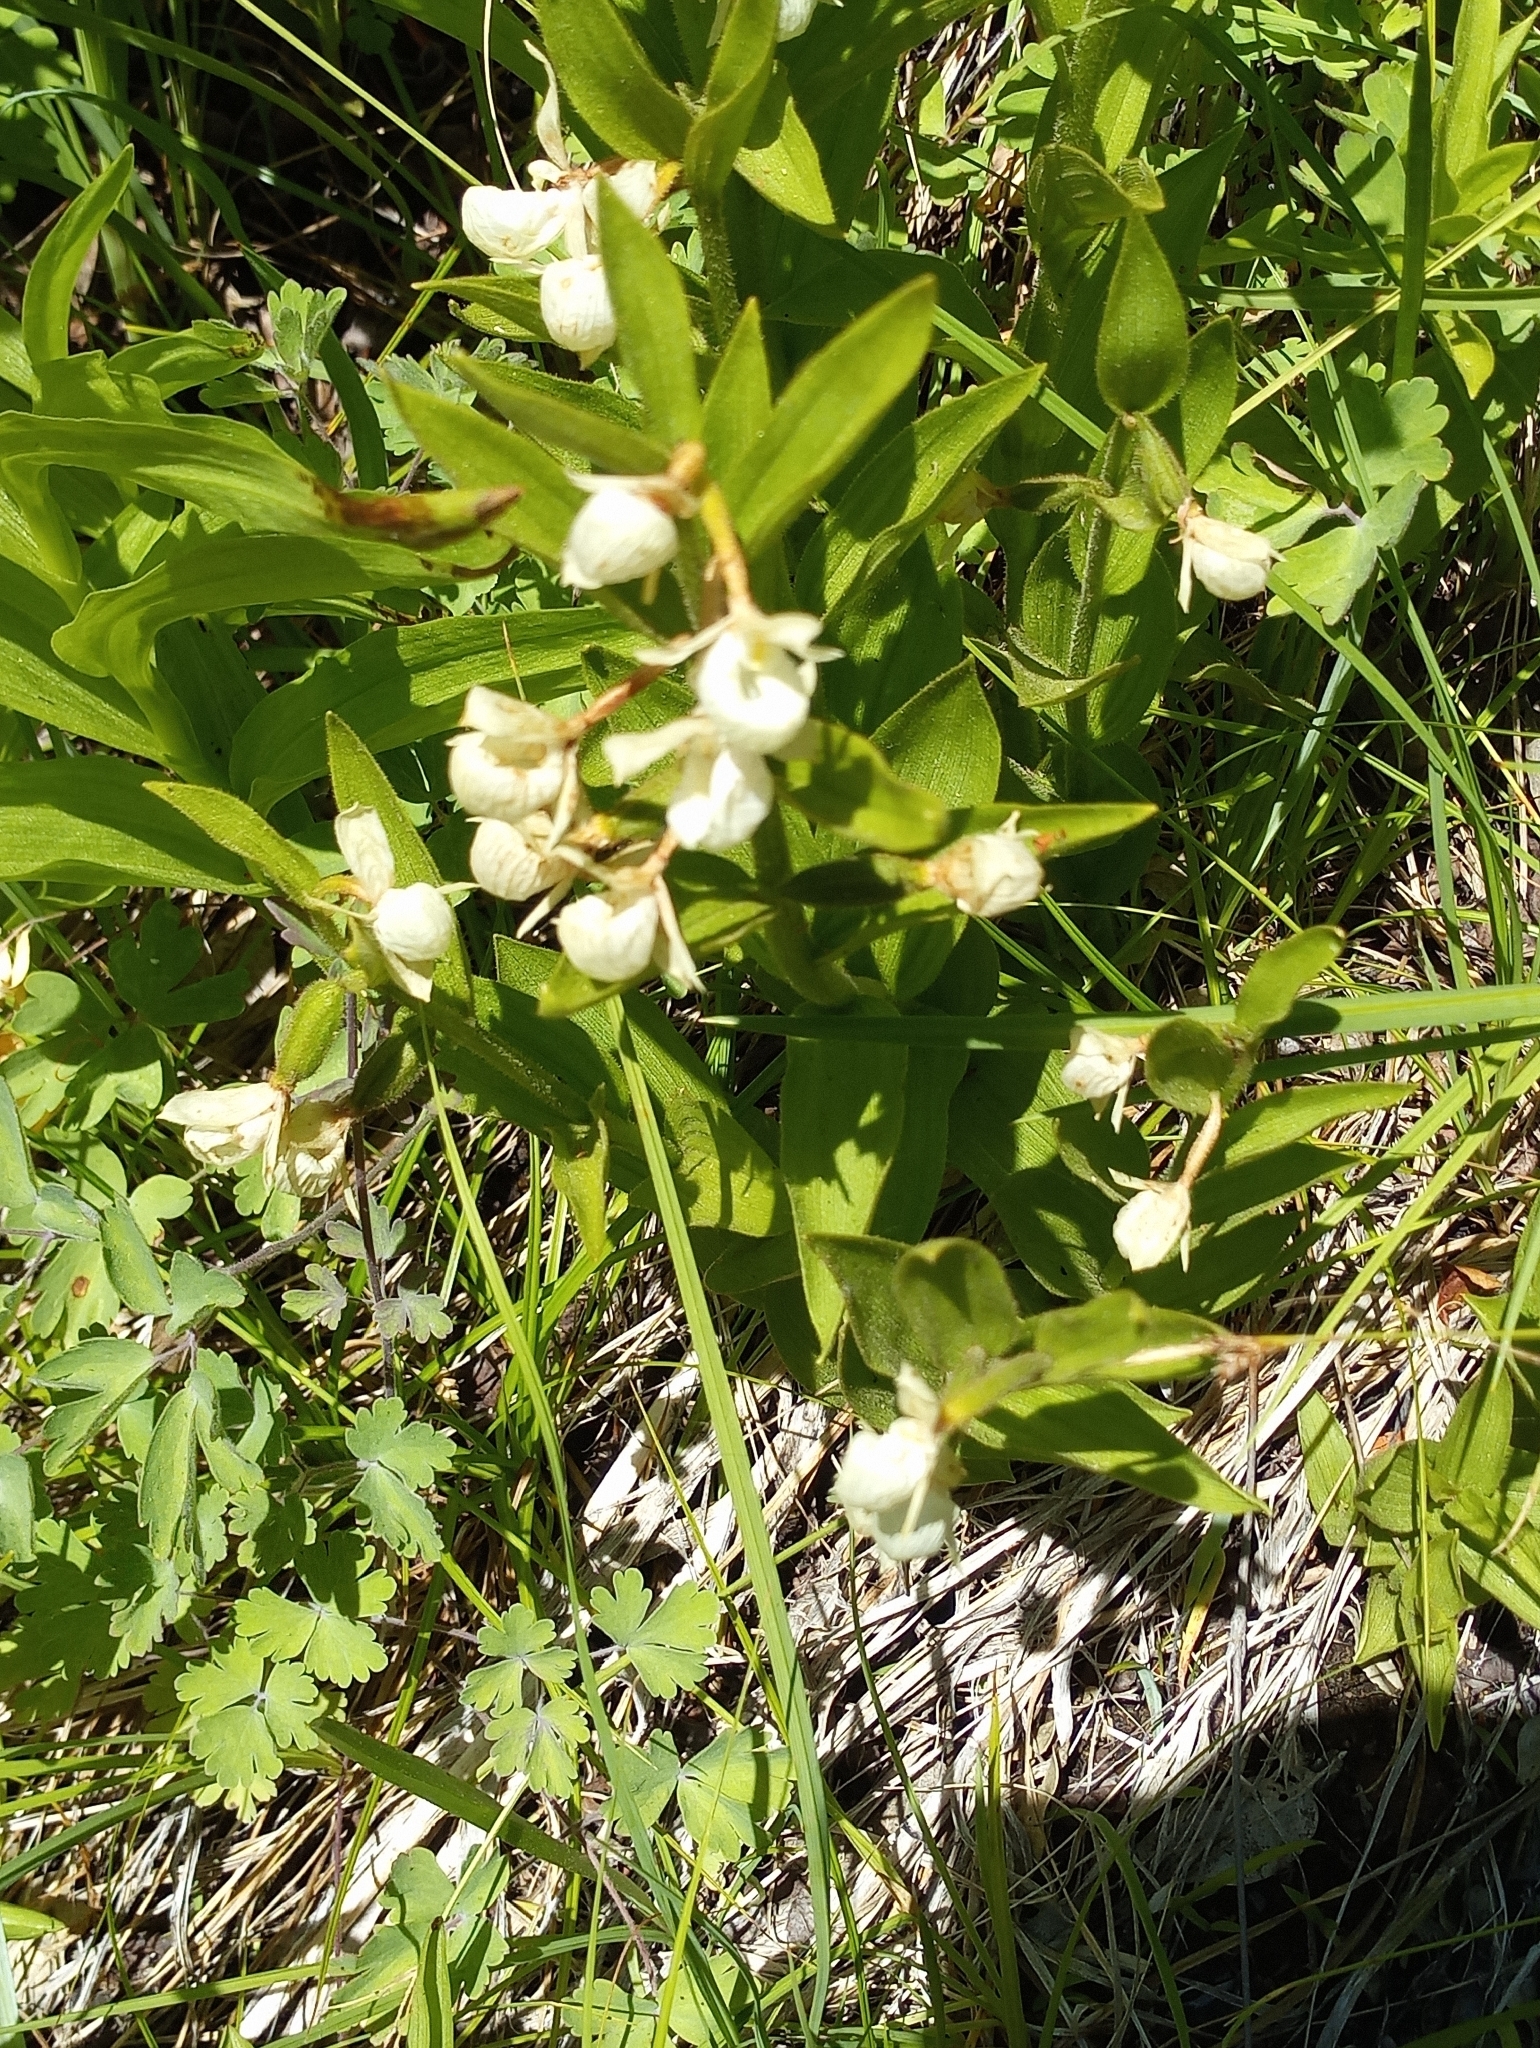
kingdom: Plantae
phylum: Tracheophyta
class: Liliopsida
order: Asparagales
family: Orchidaceae
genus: Cypripedium
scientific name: Cypripedium californicum
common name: California lady's slipper
